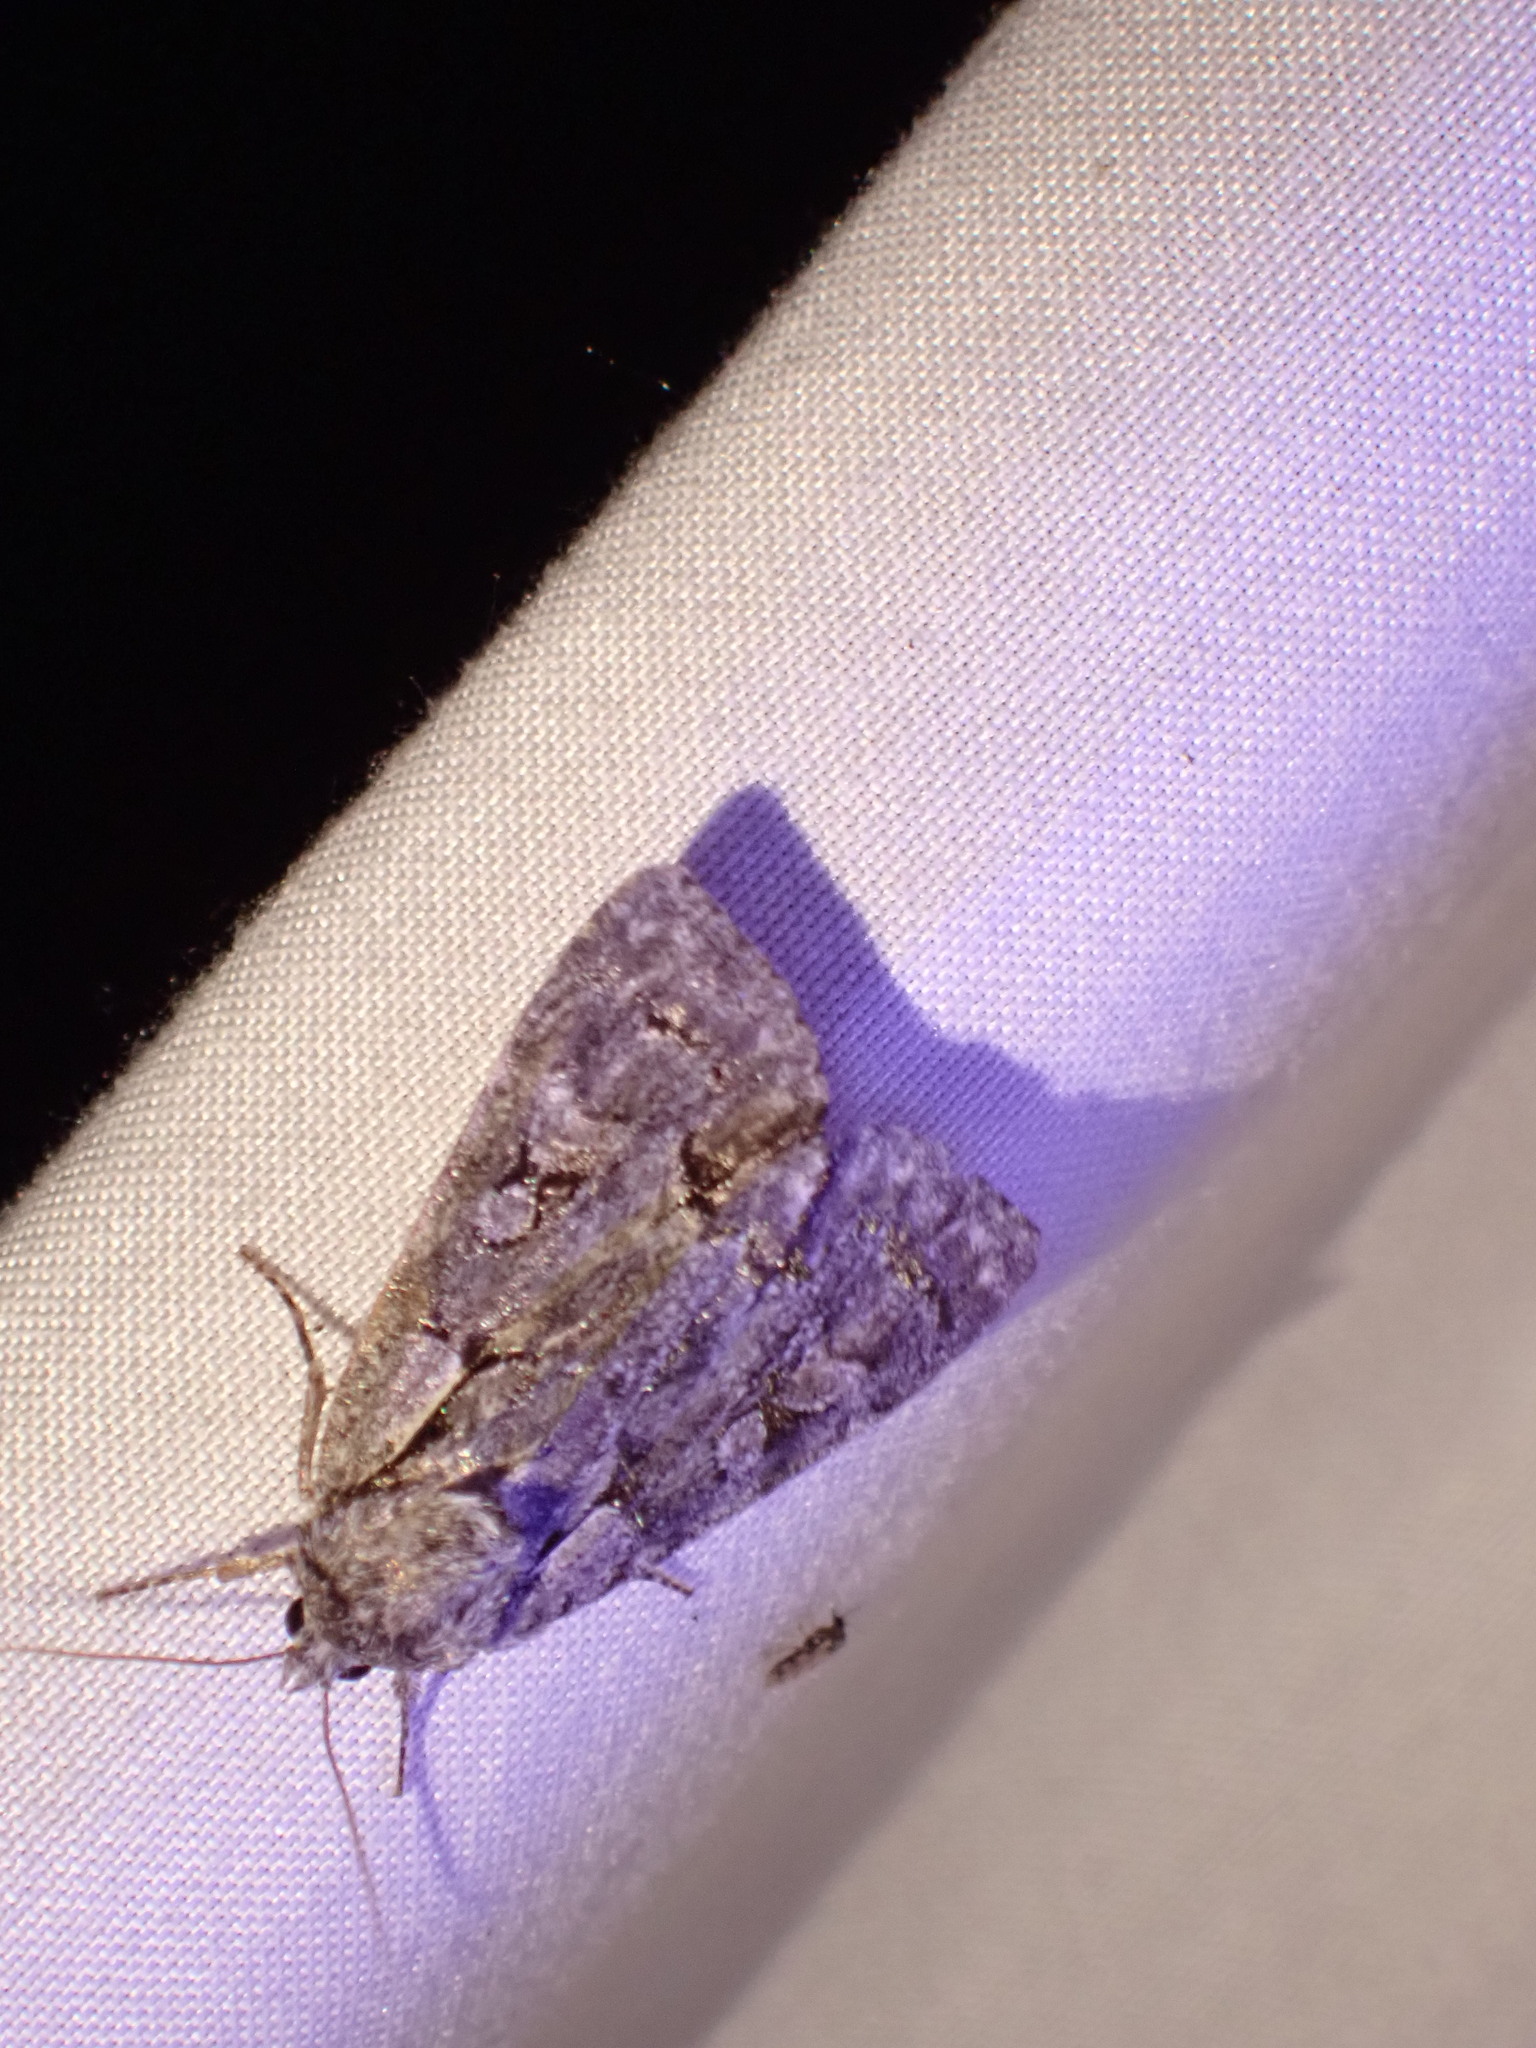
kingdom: Animalia
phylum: Arthropoda
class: Insecta
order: Lepidoptera
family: Noctuidae
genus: Acronicta
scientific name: Acronicta grisea
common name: Gray dagger
